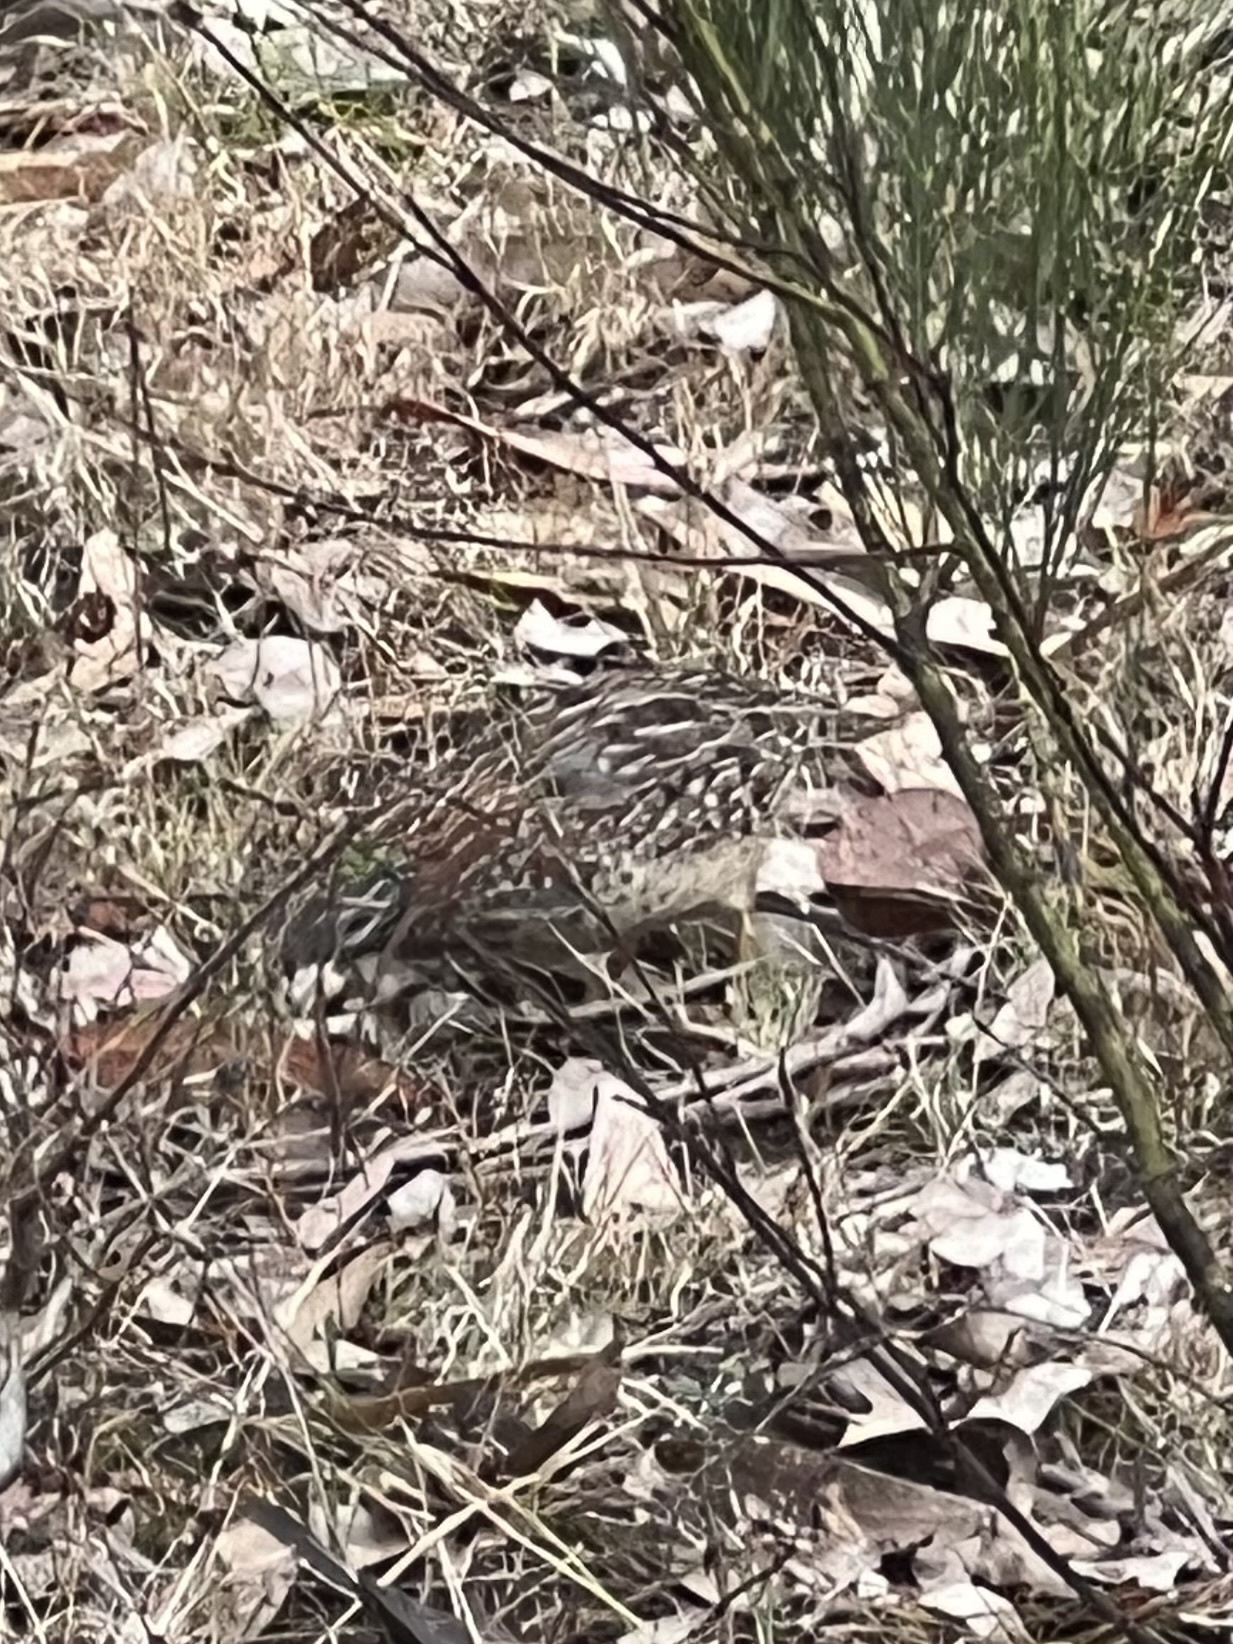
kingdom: Animalia
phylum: Chordata
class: Aves
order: Charadriiformes
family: Turnicidae
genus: Turnix
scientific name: Turnix varius
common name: Painted buttonquail
